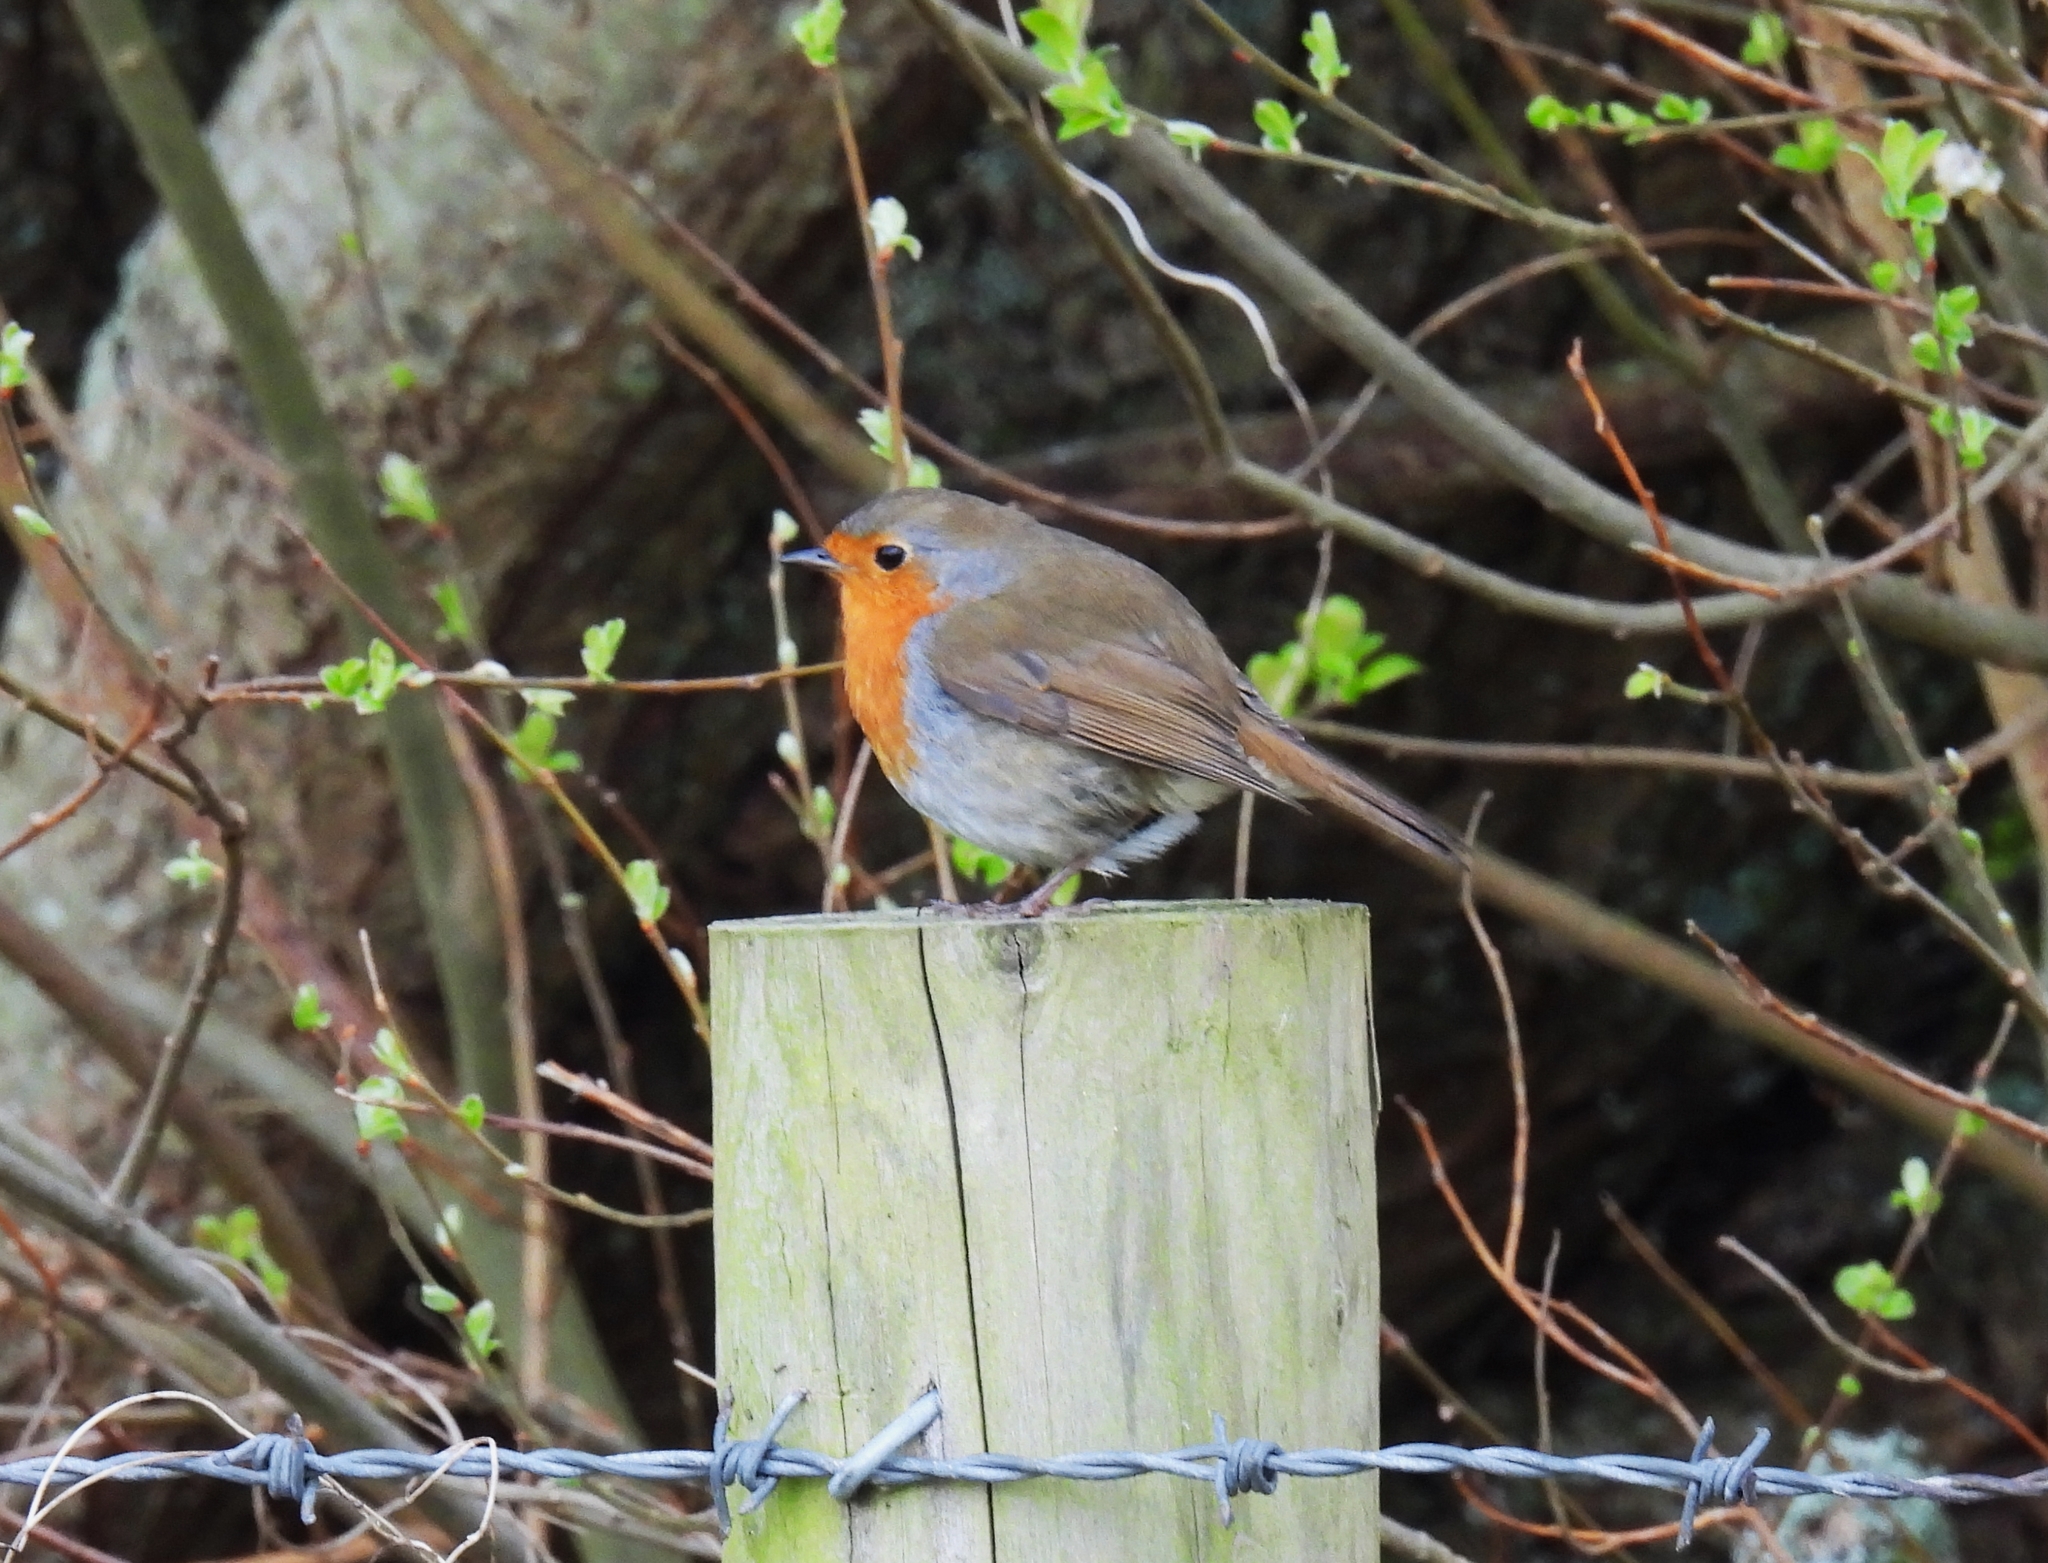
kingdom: Animalia
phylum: Chordata
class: Aves
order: Passeriformes
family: Muscicapidae
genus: Erithacus
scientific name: Erithacus rubecula
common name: European robin
